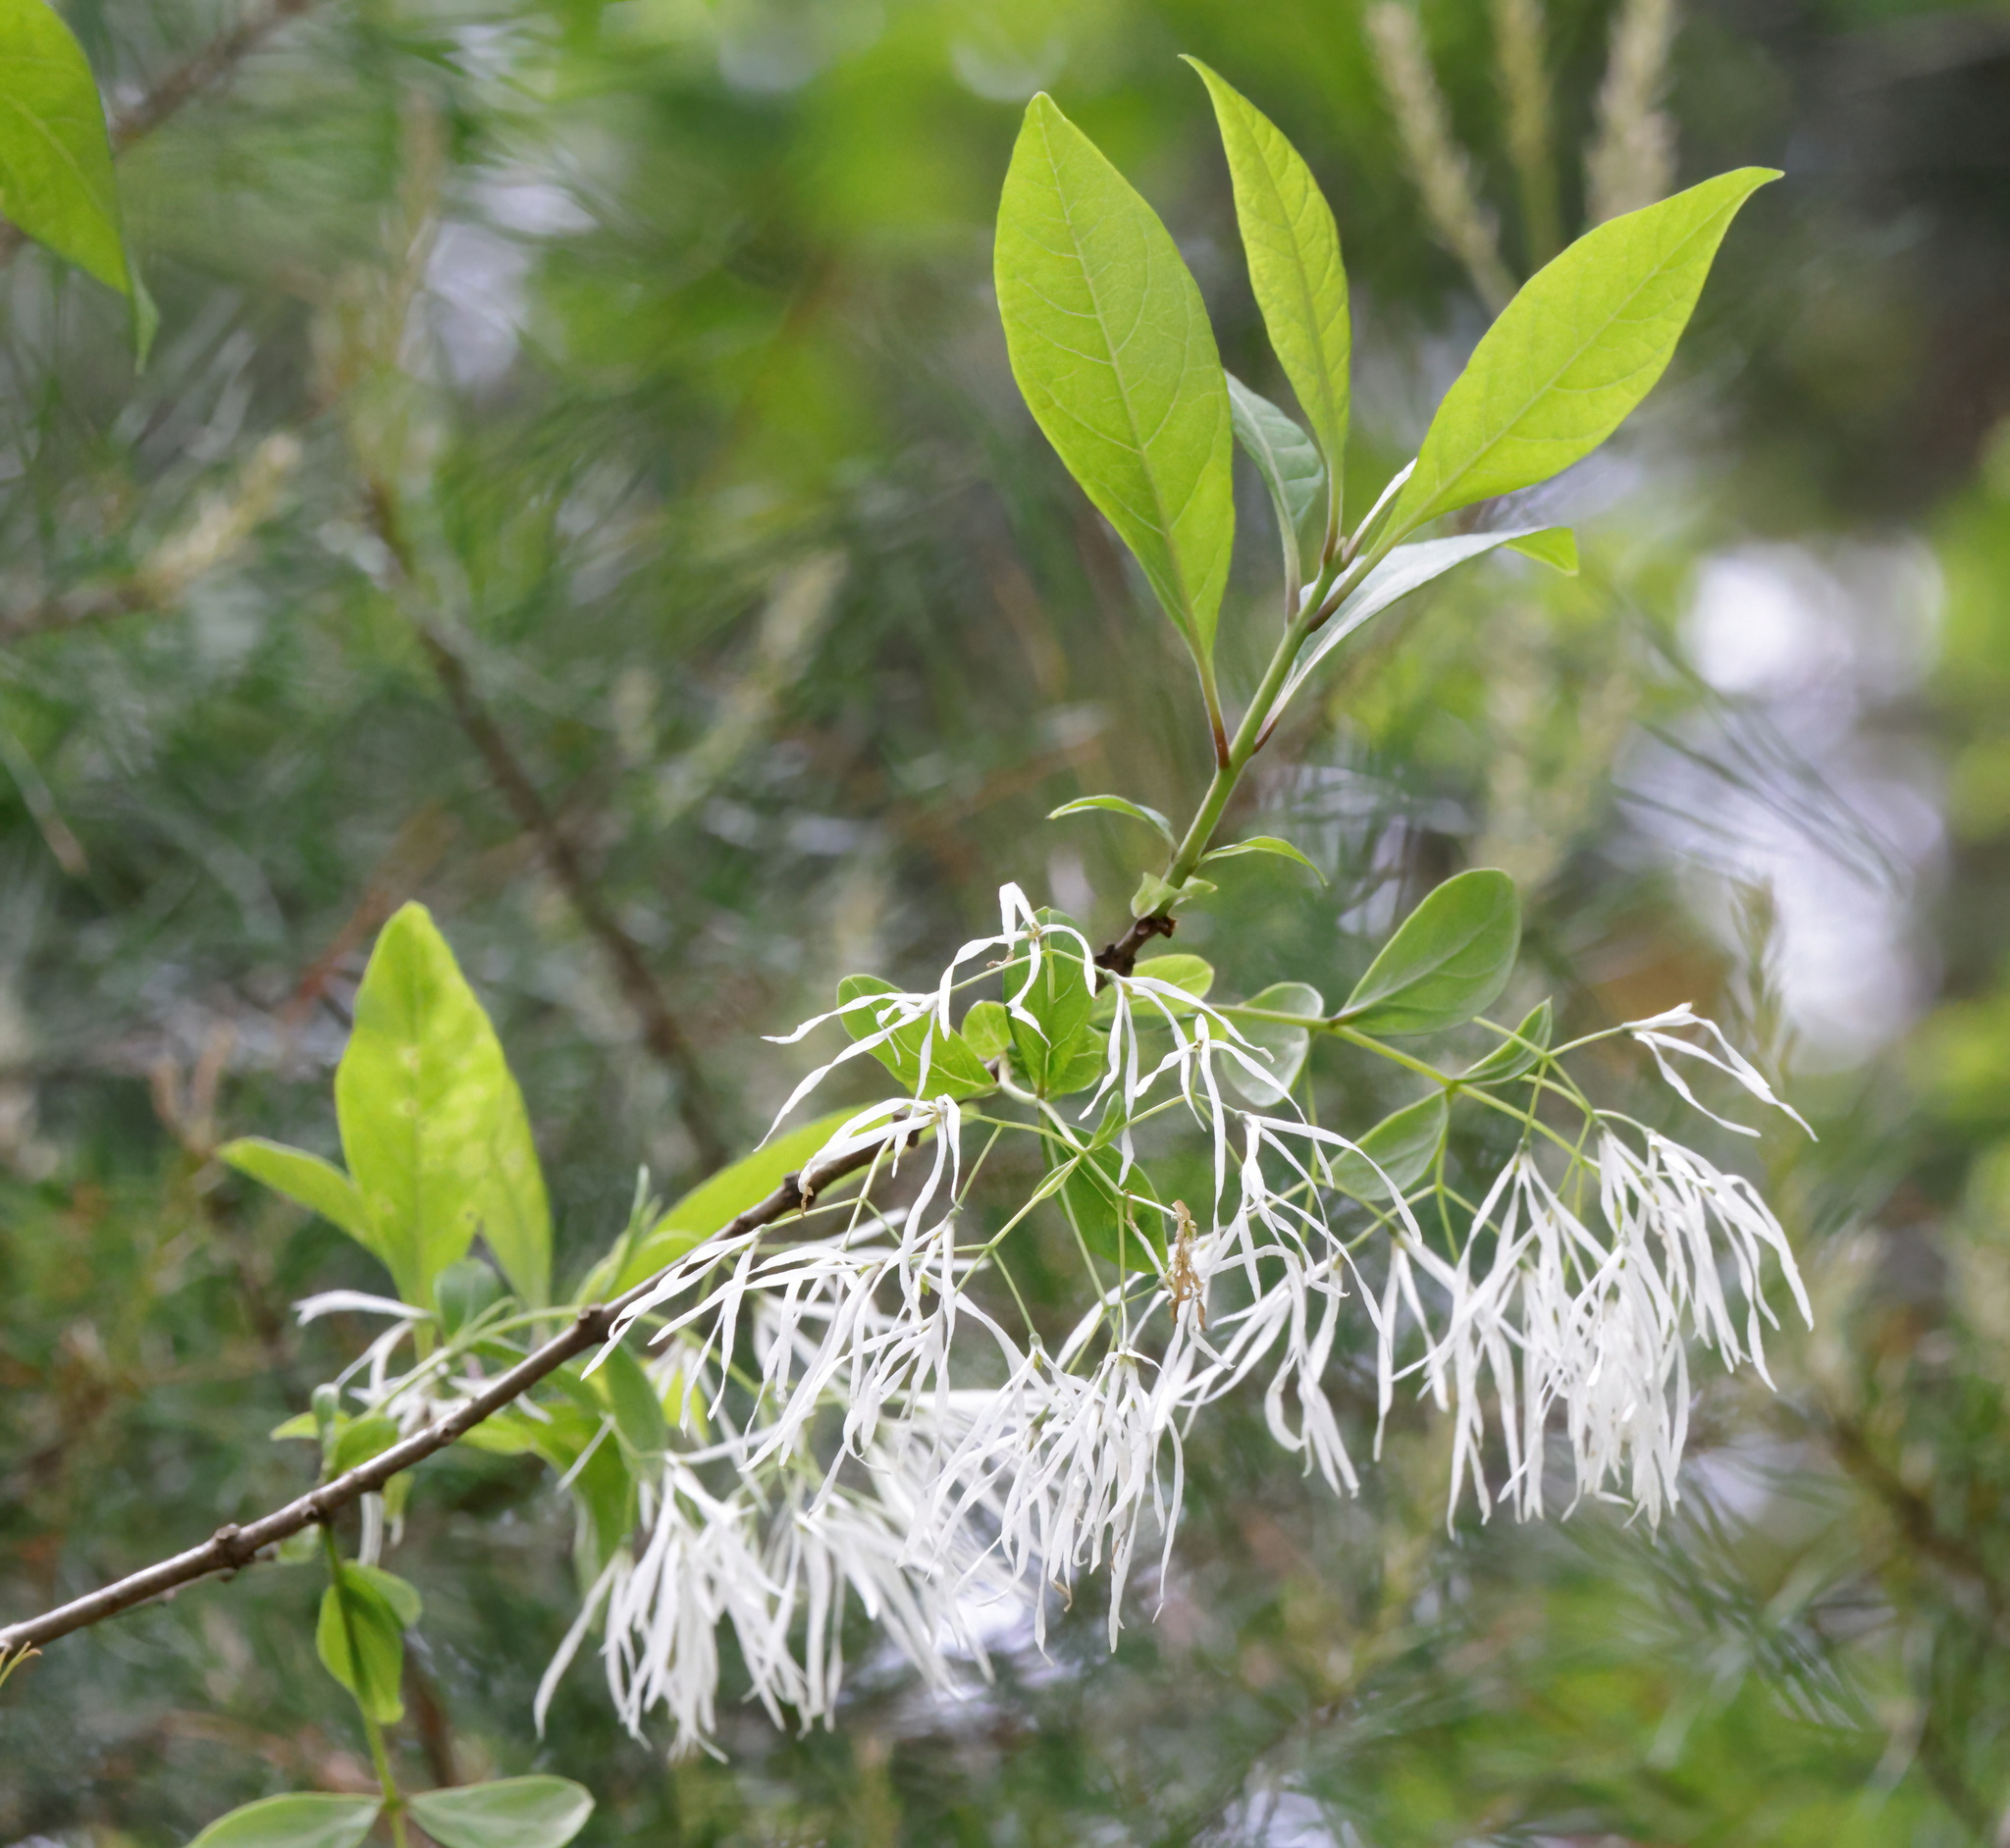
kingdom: Plantae
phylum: Tracheophyta
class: Magnoliopsida
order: Lamiales
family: Oleaceae
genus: Chionanthus
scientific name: Chionanthus virginicus
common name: American fringetree
